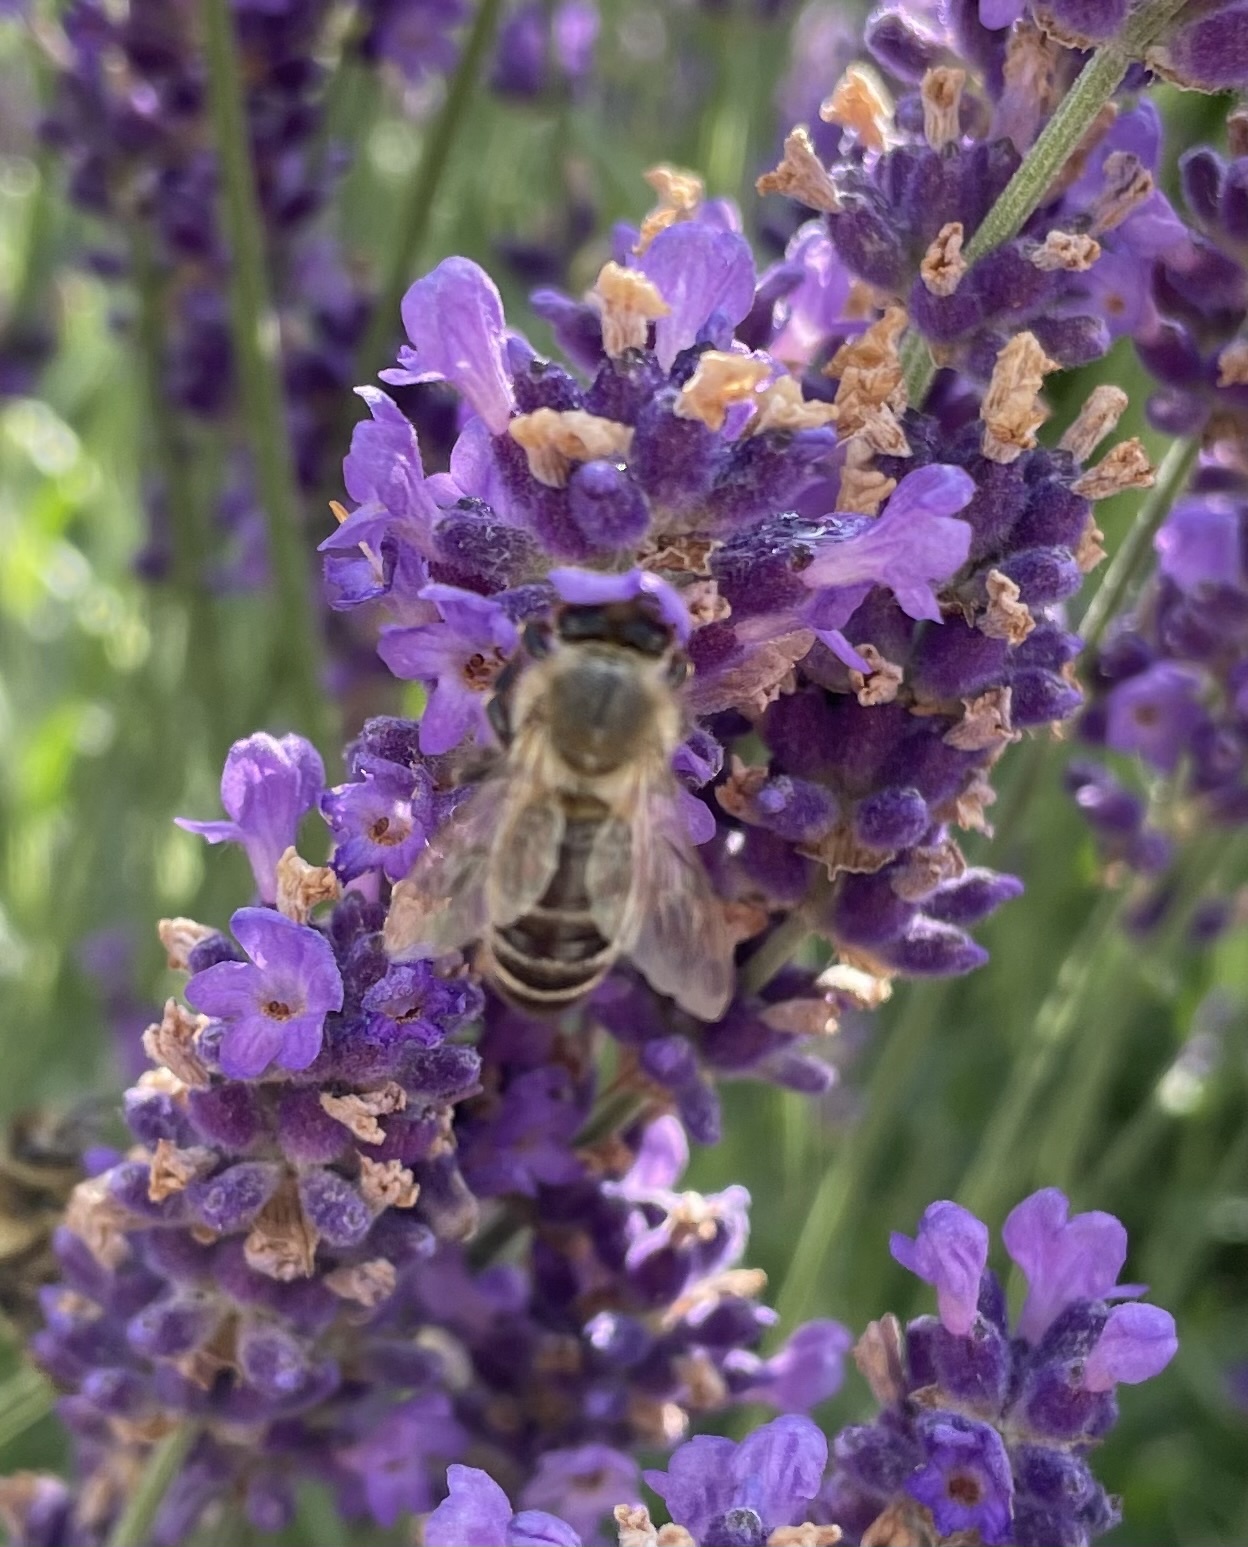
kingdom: Animalia
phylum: Arthropoda
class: Insecta
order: Hymenoptera
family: Apidae
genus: Apis
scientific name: Apis mellifera
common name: Honey bee
